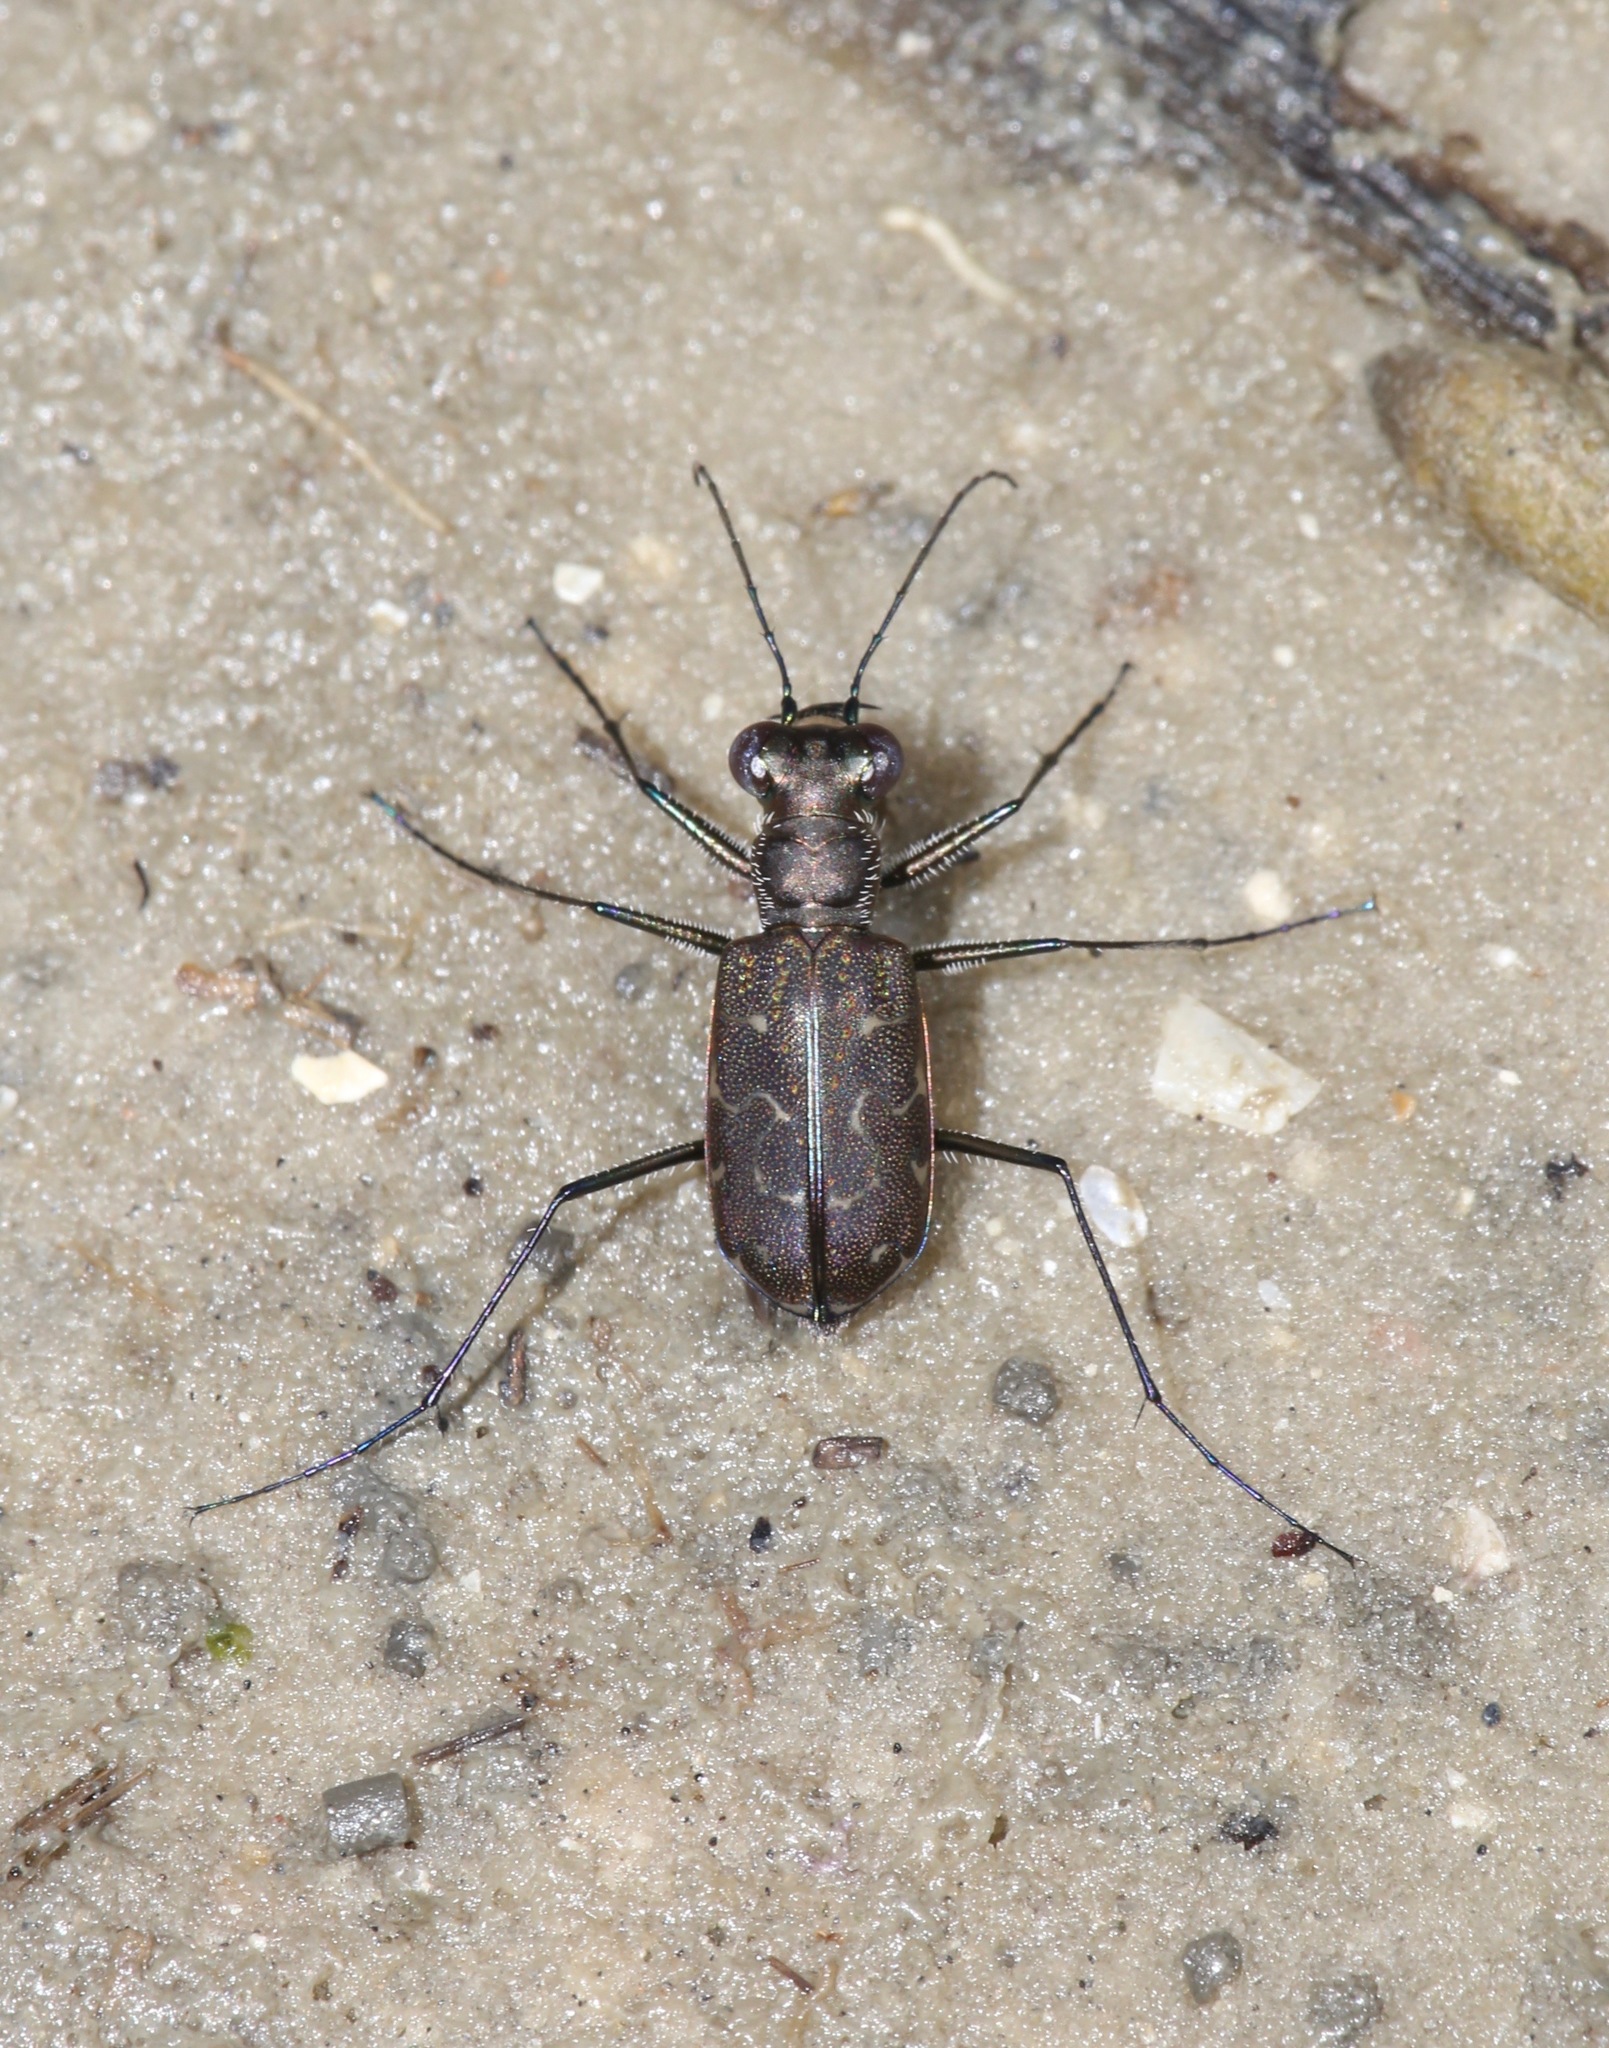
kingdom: Animalia
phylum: Arthropoda
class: Insecta
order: Coleoptera
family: Carabidae
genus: Cicindela
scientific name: Cicindela trifasciata
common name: Mudflat tiger beetle
